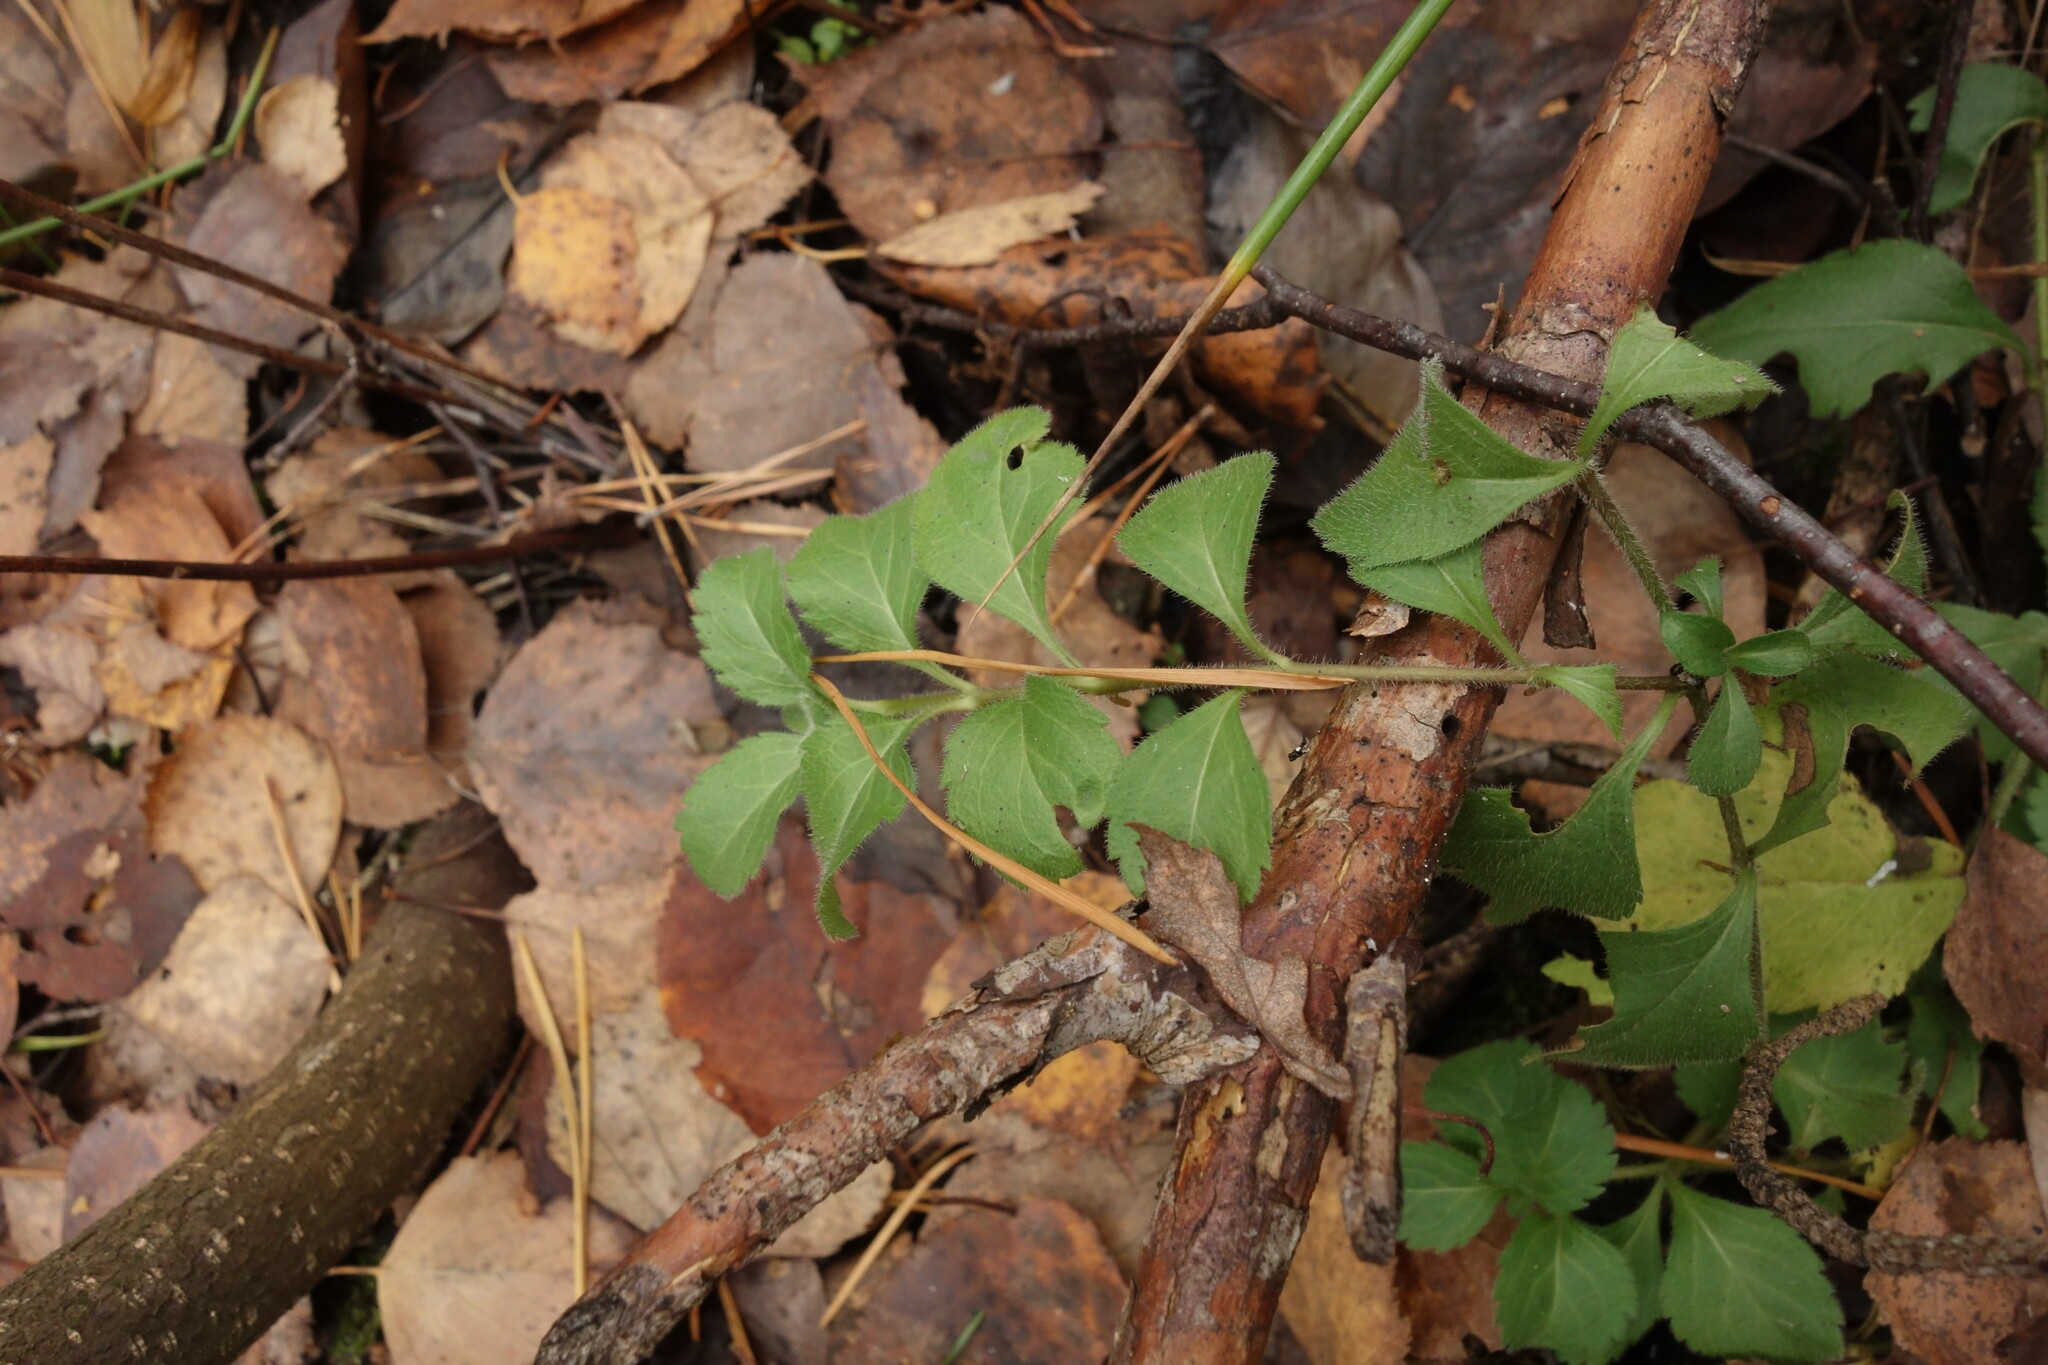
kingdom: Plantae
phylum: Tracheophyta
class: Magnoliopsida
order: Lamiales
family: Plantaginaceae
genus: Veronica
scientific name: Veronica officinalis
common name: Common speedwell
